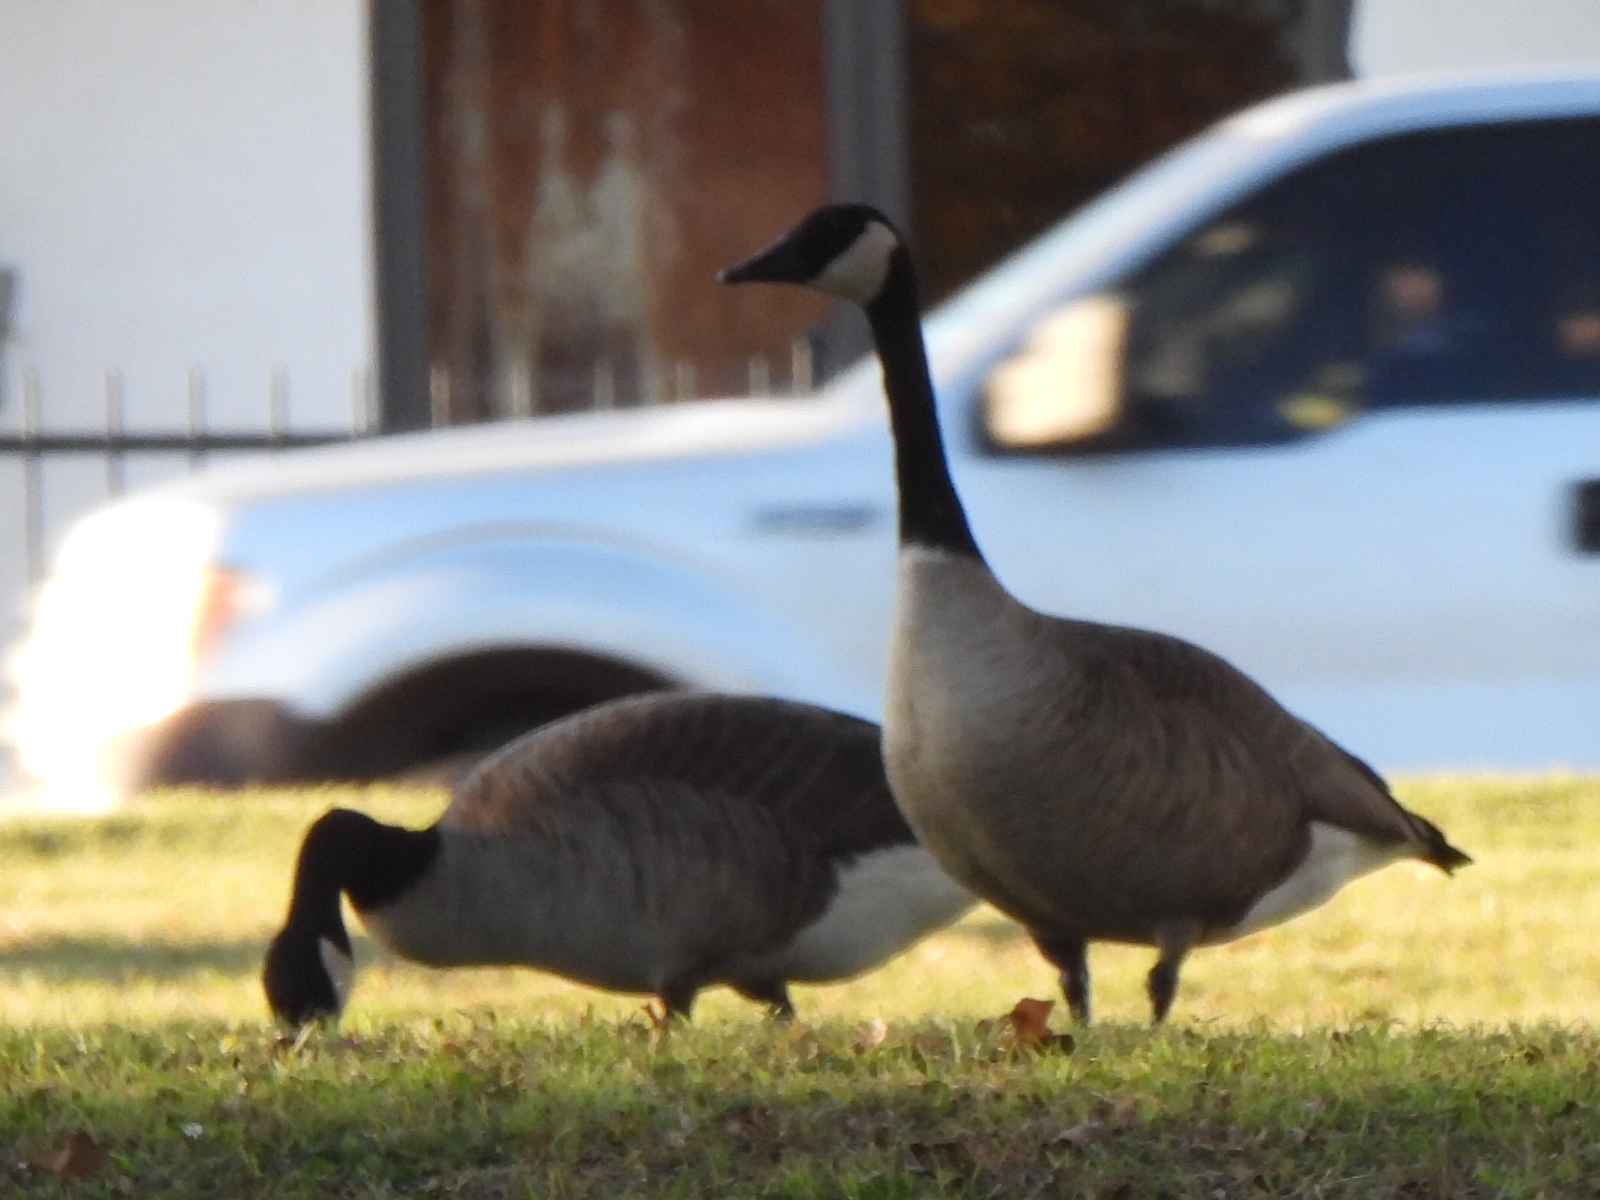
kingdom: Animalia
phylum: Chordata
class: Aves
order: Anseriformes
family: Anatidae
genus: Branta
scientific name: Branta canadensis
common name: Canada goose
